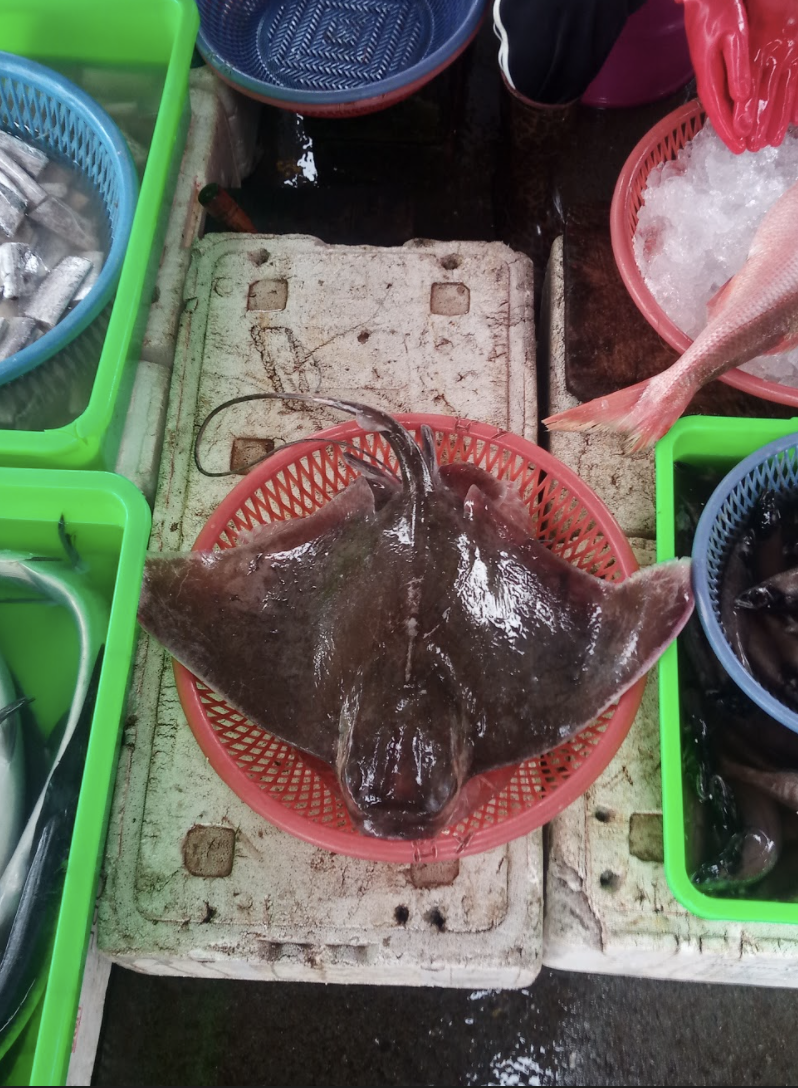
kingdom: Animalia
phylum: Chordata
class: Elasmobranchii
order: Myliobatiformes
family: Myliobatidae
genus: Myliobatis
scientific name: Myliobatis tobijei
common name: Japanese eagle ray
